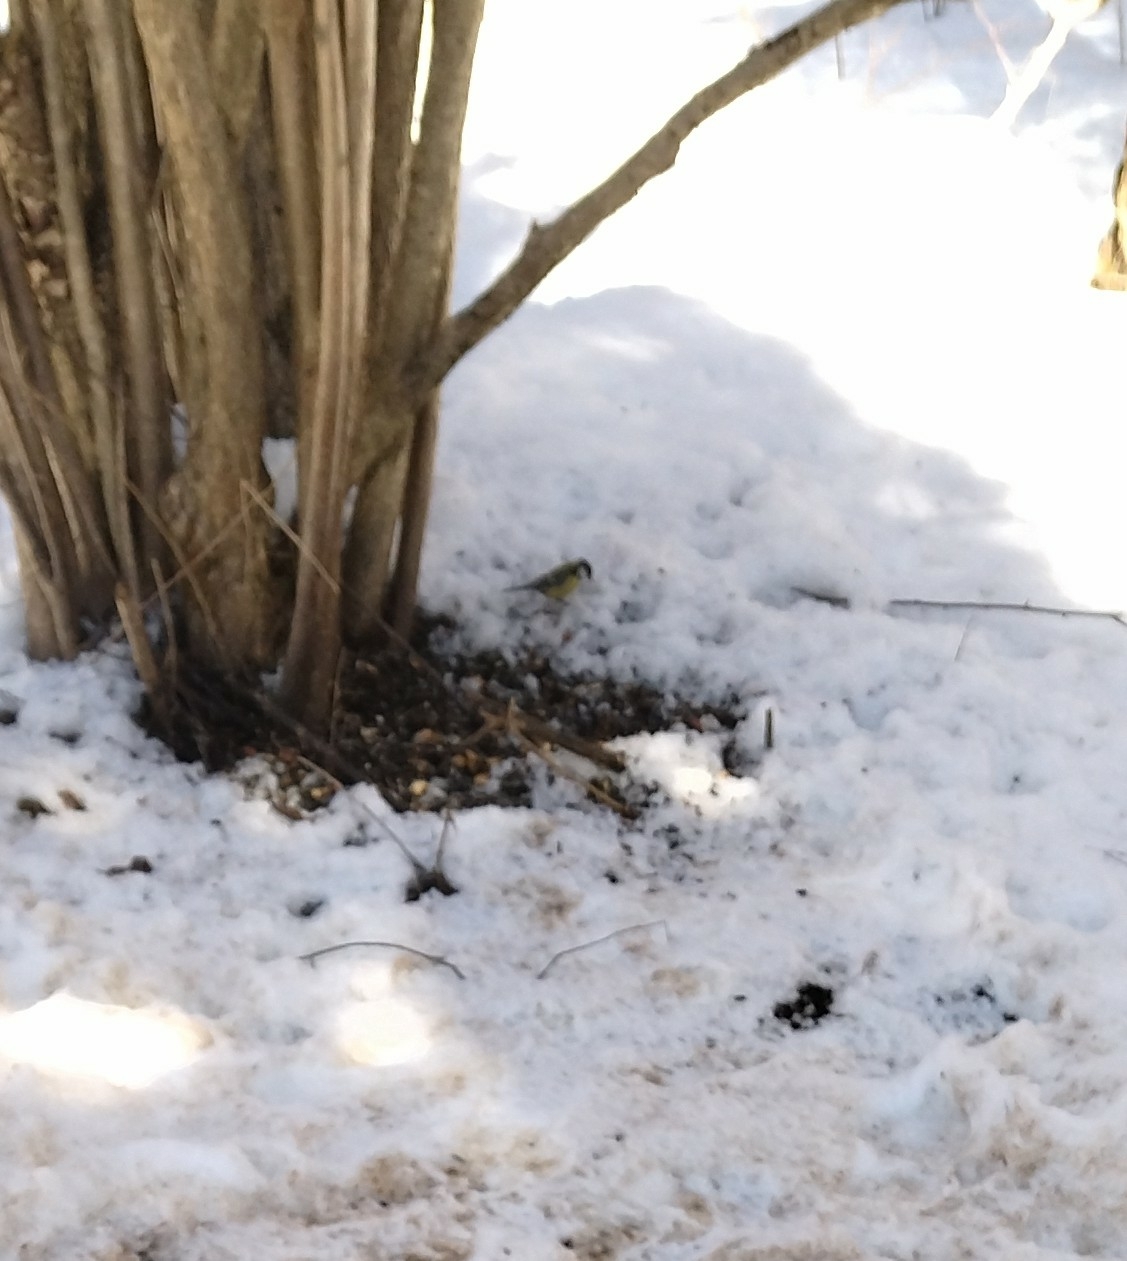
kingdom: Animalia
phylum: Chordata
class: Aves
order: Passeriformes
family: Paridae
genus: Parus
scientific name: Parus major
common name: Great tit
